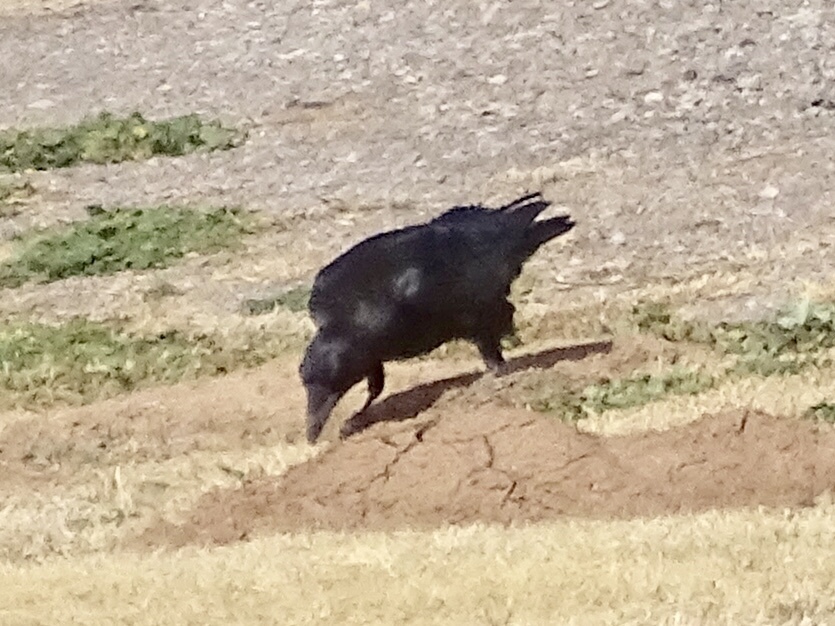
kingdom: Animalia
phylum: Chordata
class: Aves
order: Passeriformes
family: Corvidae
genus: Corvus
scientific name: Corvus brachyrhynchos
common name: American crow
